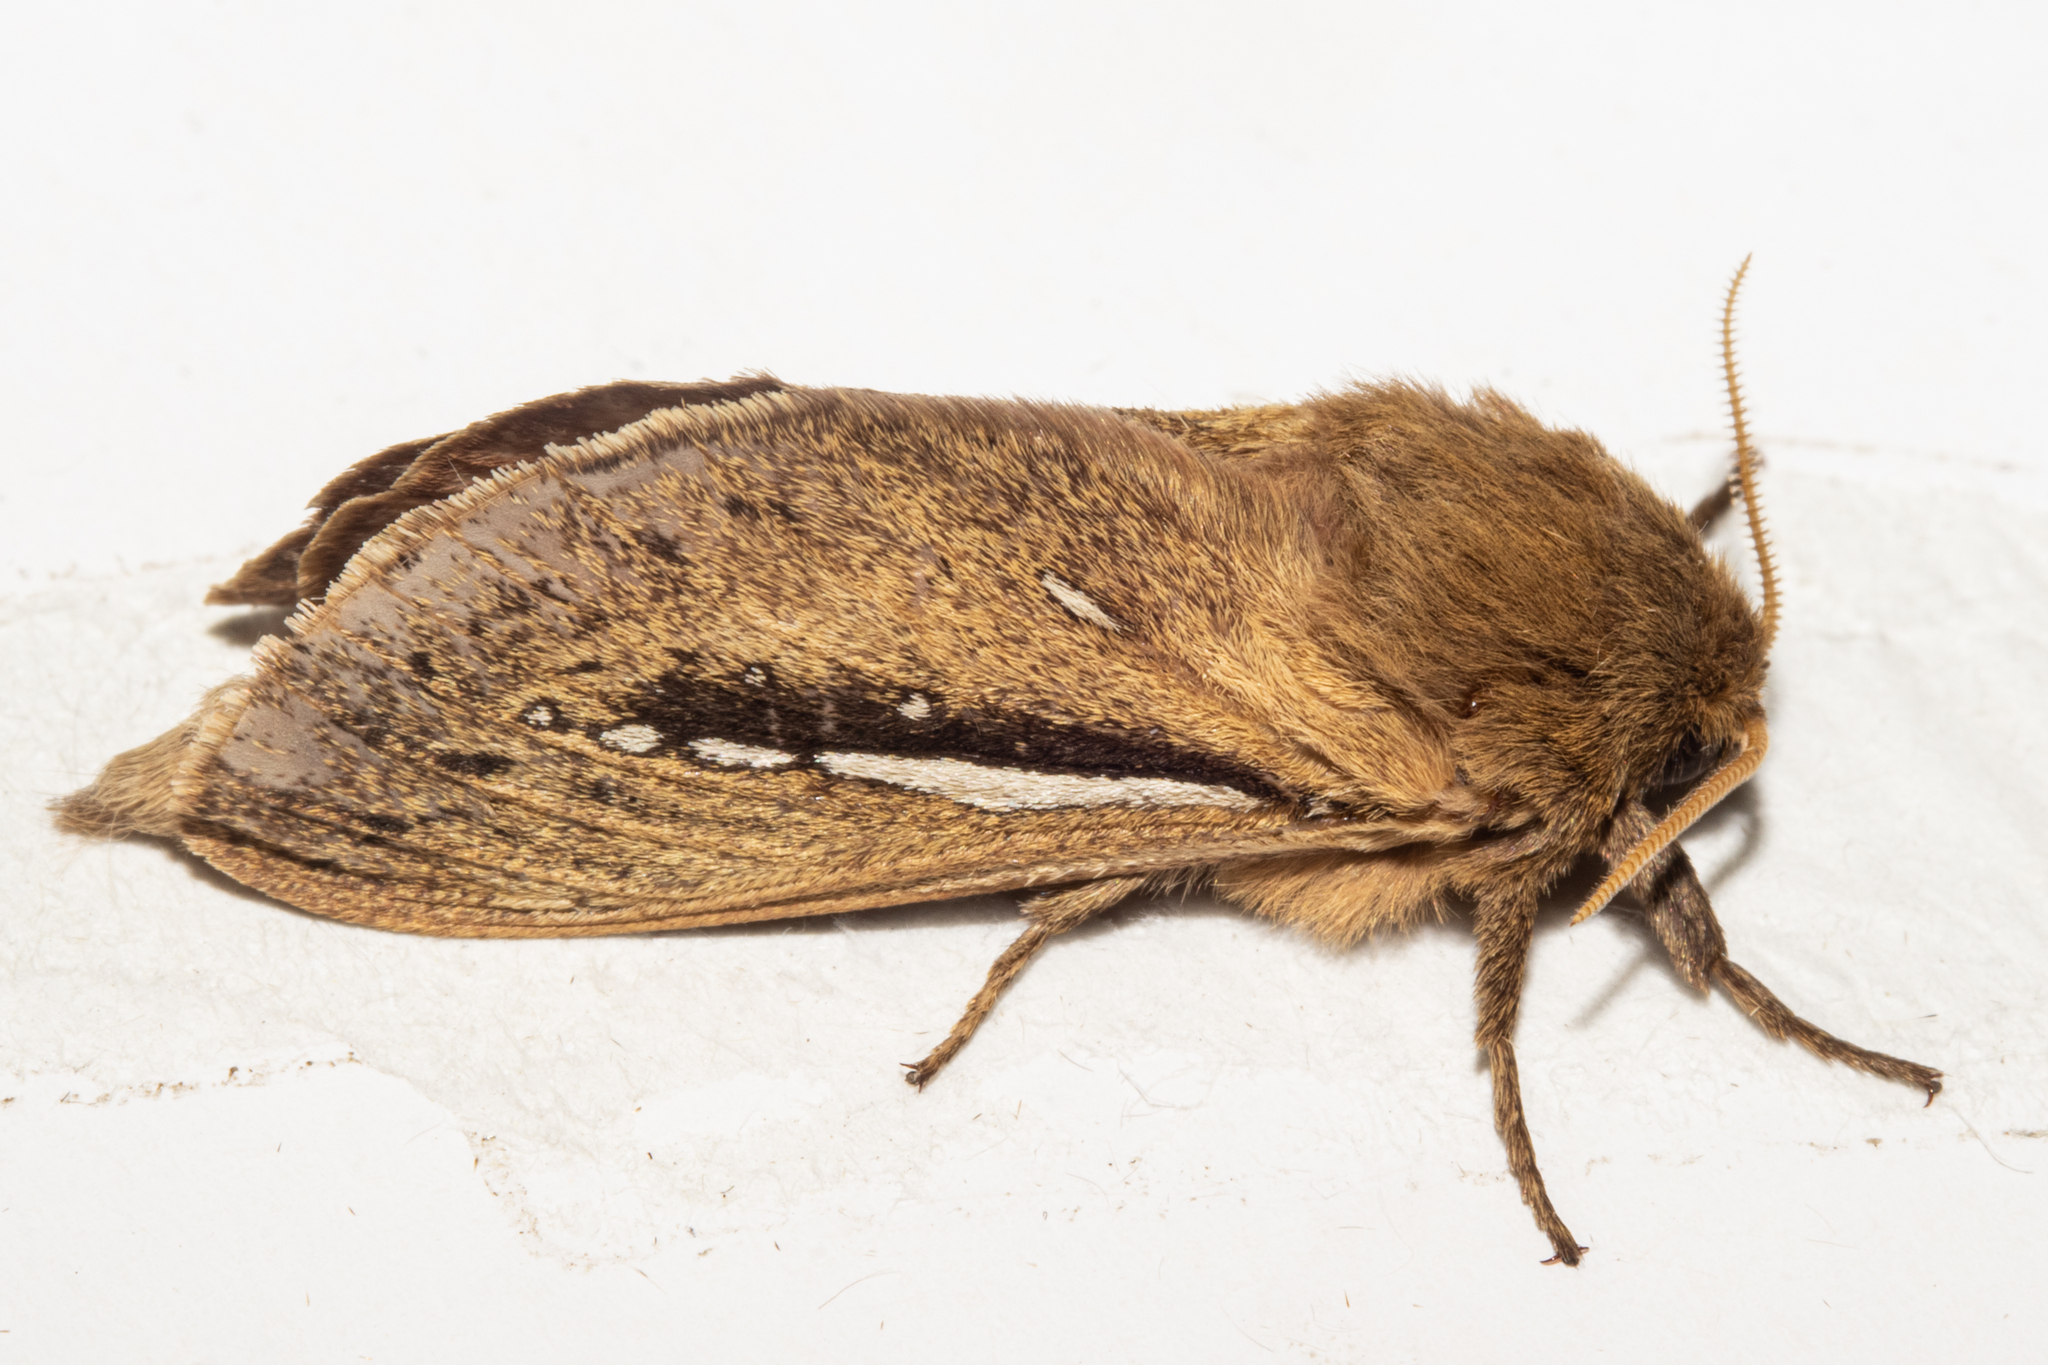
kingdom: Animalia
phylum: Arthropoda
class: Insecta
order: Lepidoptera
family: Hepialidae
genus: Wiseana
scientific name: Wiseana umbraculatus
